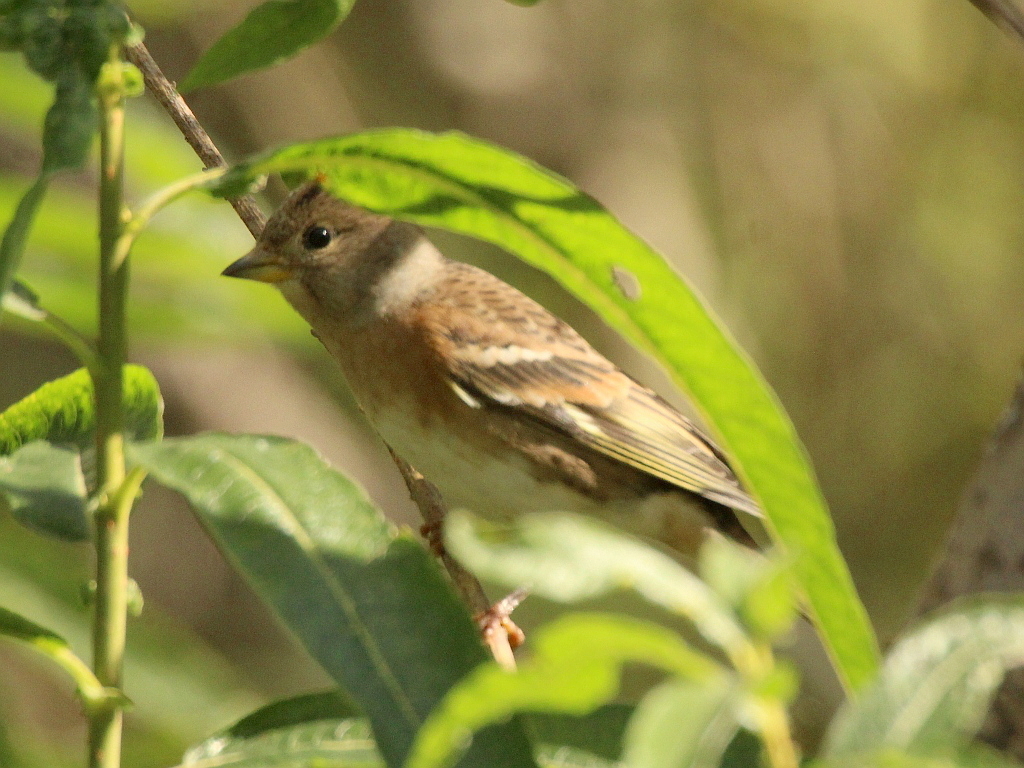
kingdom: Animalia
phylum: Chordata
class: Aves
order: Passeriformes
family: Fringillidae
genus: Fringilla
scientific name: Fringilla montifringilla
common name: Brambling
